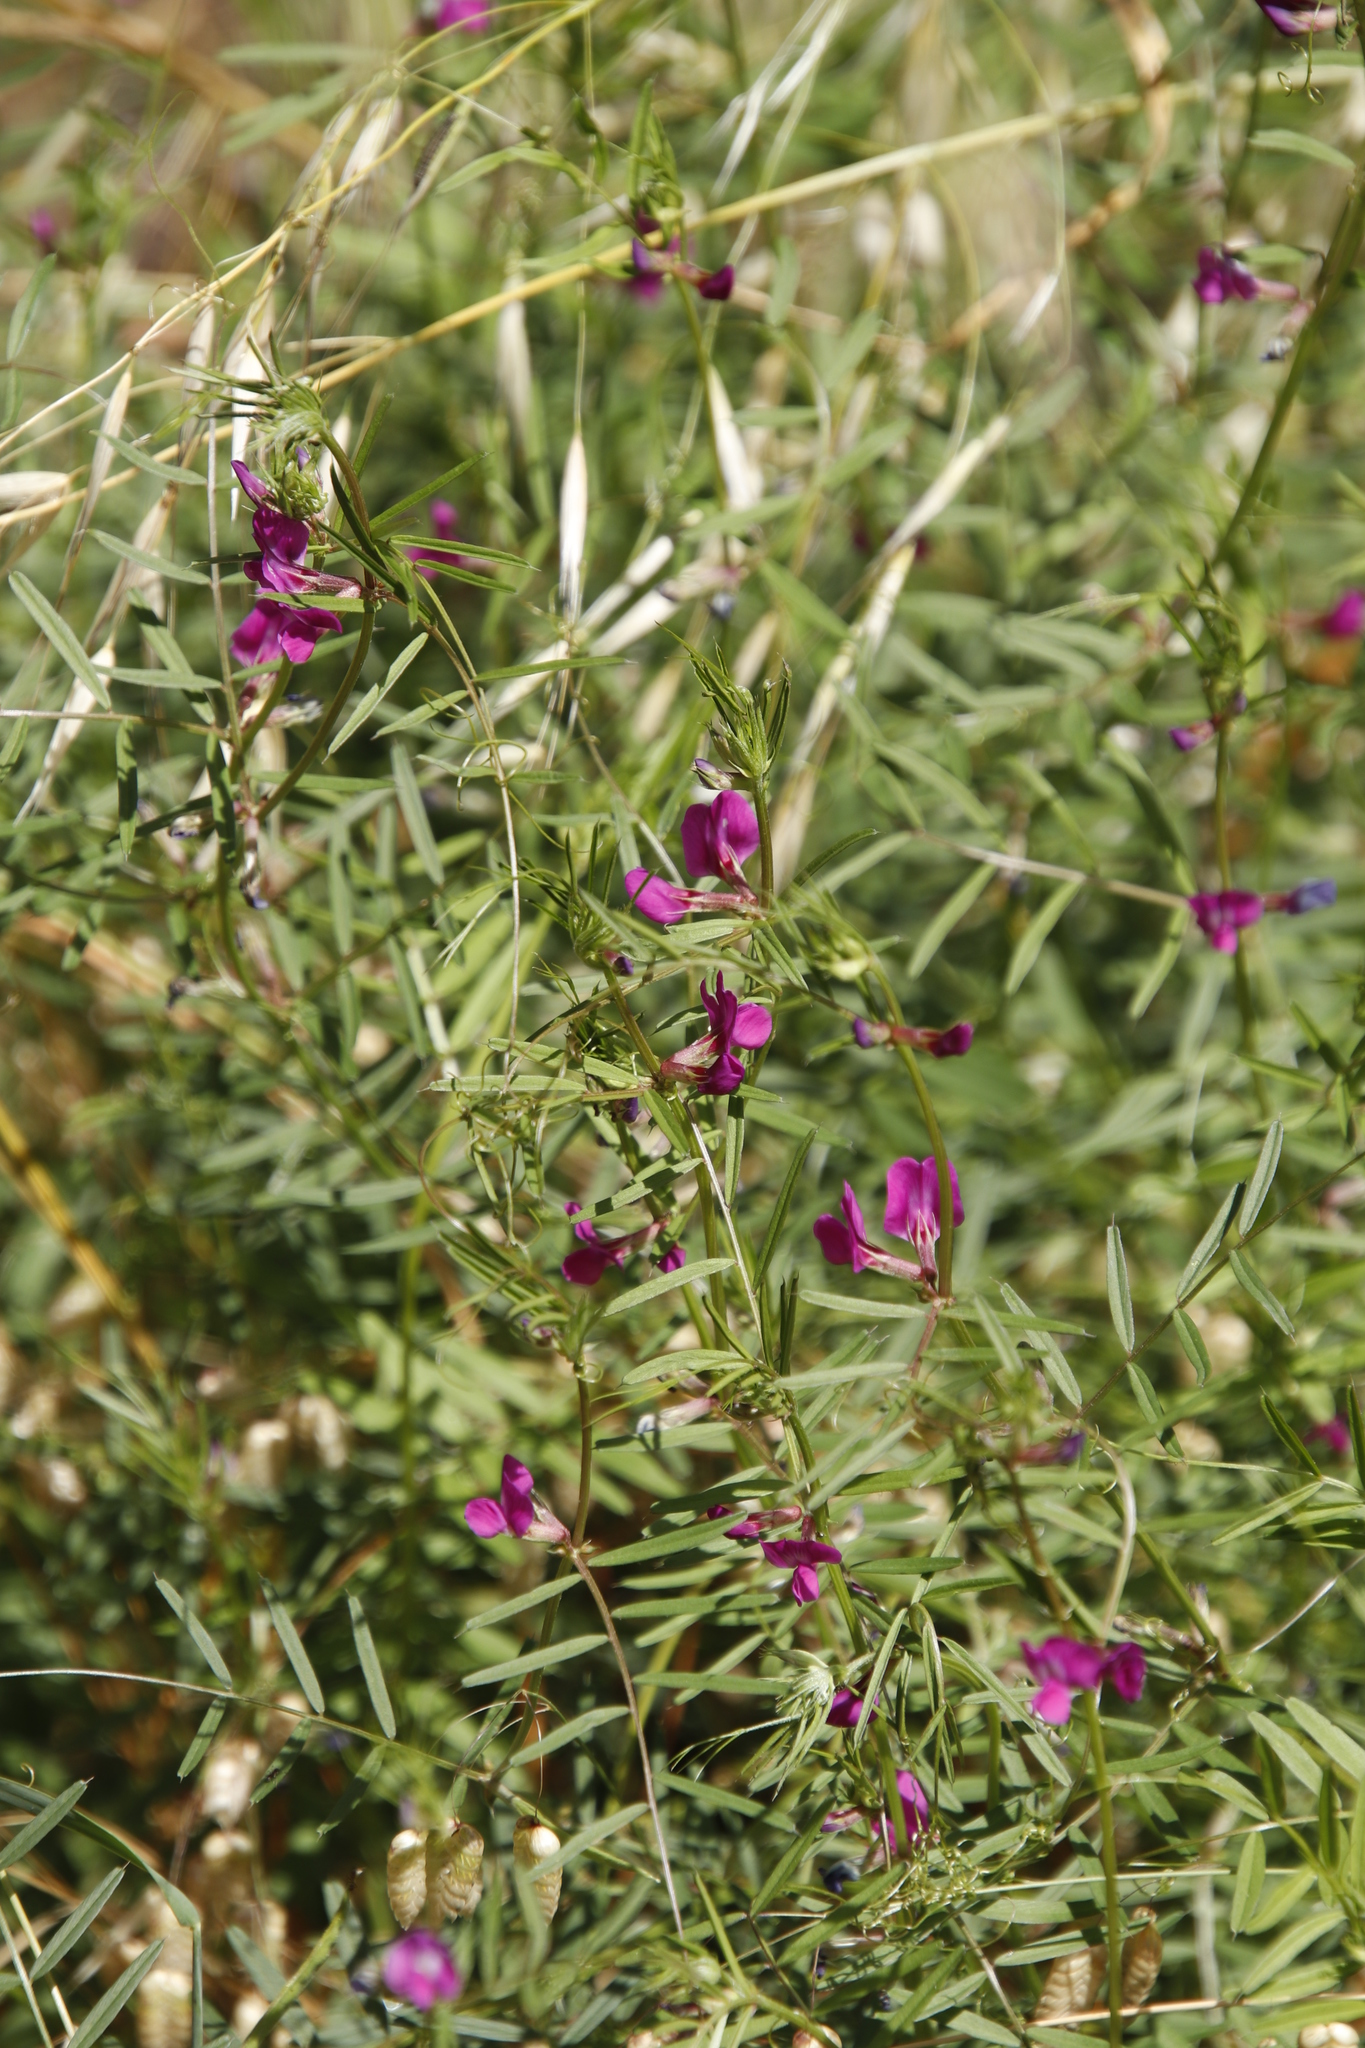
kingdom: Plantae
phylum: Tracheophyta
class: Magnoliopsida
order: Fabales
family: Fabaceae
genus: Vicia
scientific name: Vicia sativa
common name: Garden vetch
